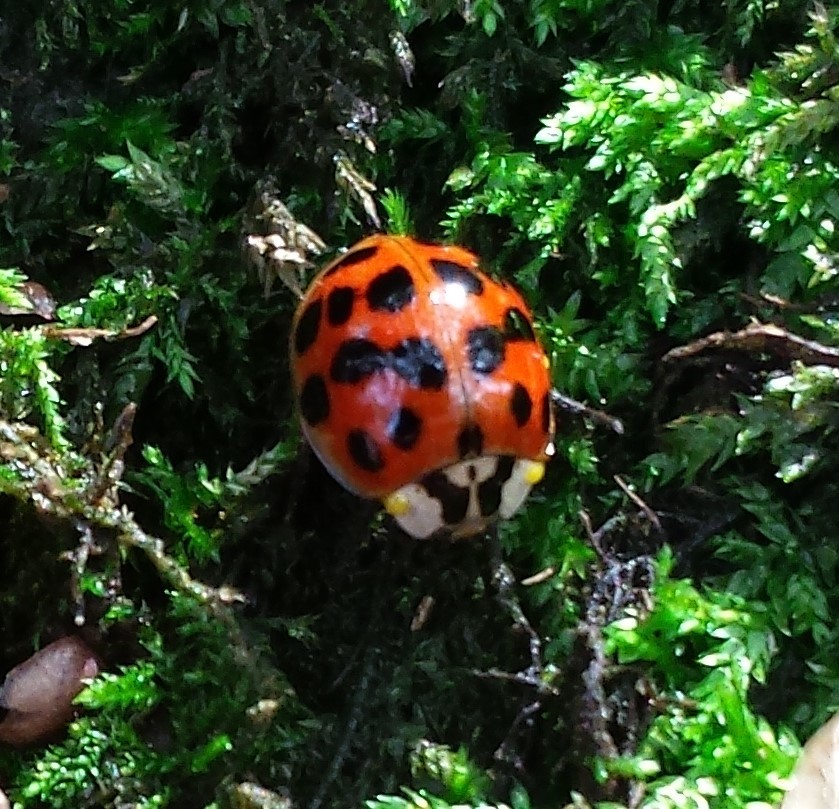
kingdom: Animalia
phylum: Arthropoda
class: Insecta
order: Coleoptera
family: Coccinellidae
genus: Harmonia
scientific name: Harmonia axyridis
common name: Harlequin ladybird
